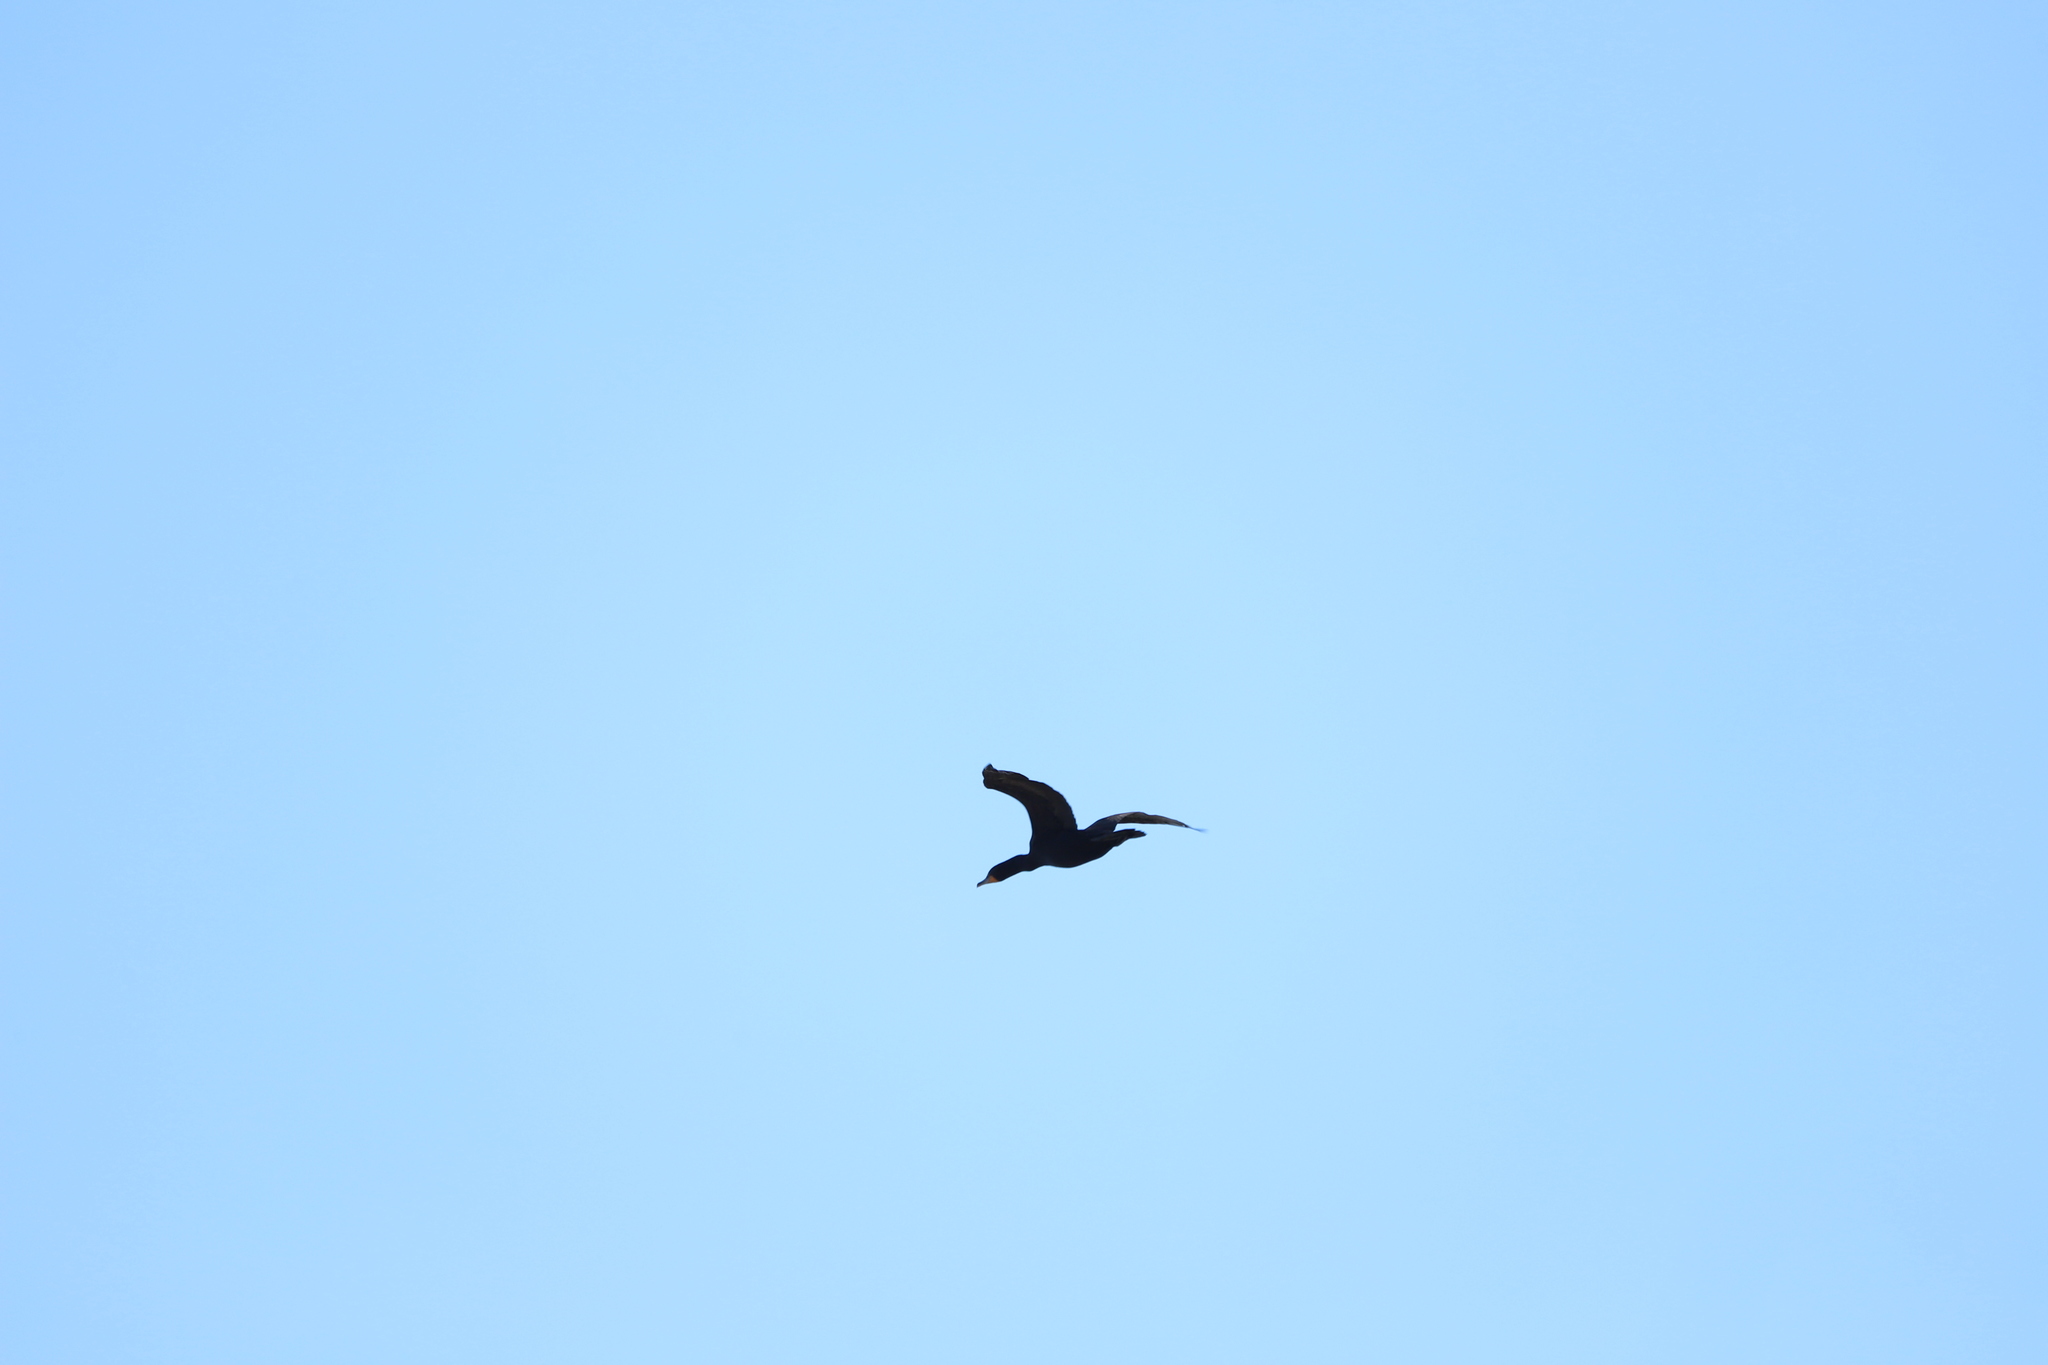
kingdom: Animalia
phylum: Chordata
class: Aves
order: Suliformes
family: Phalacrocoracidae
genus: Phalacrocorax
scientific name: Phalacrocorax auritus
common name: Double-crested cormorant
